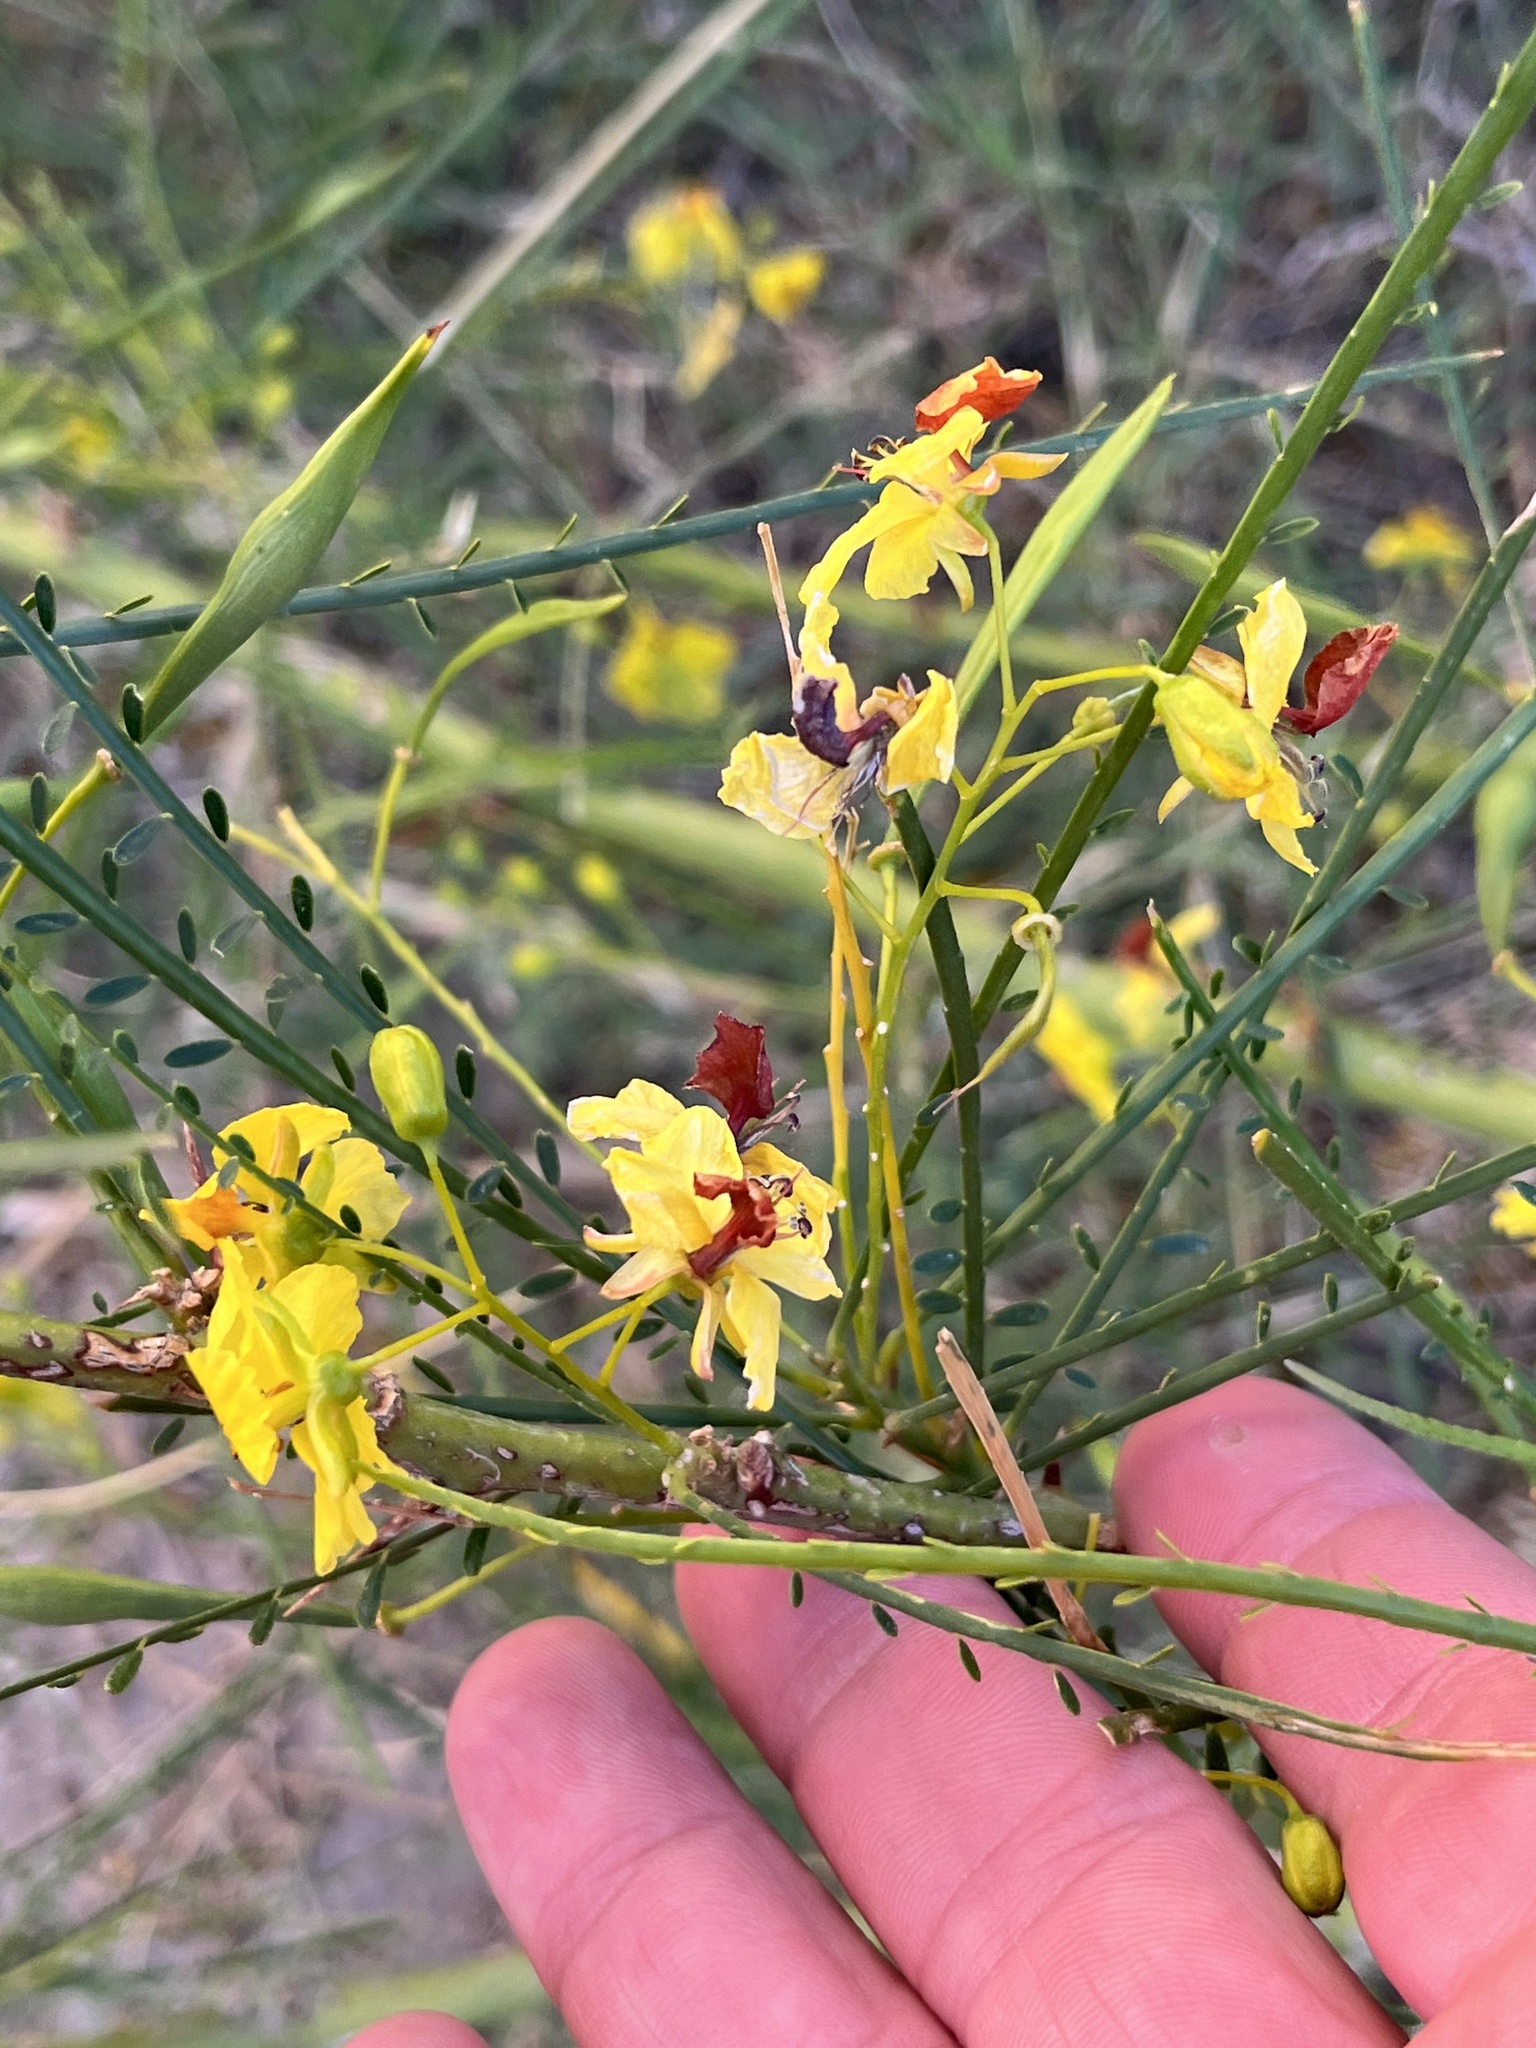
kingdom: Plantae
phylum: Tracheophyta
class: Magnoliopsida
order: Fabales
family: Fabaceae
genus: Parkinsonia
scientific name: Parkinsonia aculeata
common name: Jerusalem thorn
